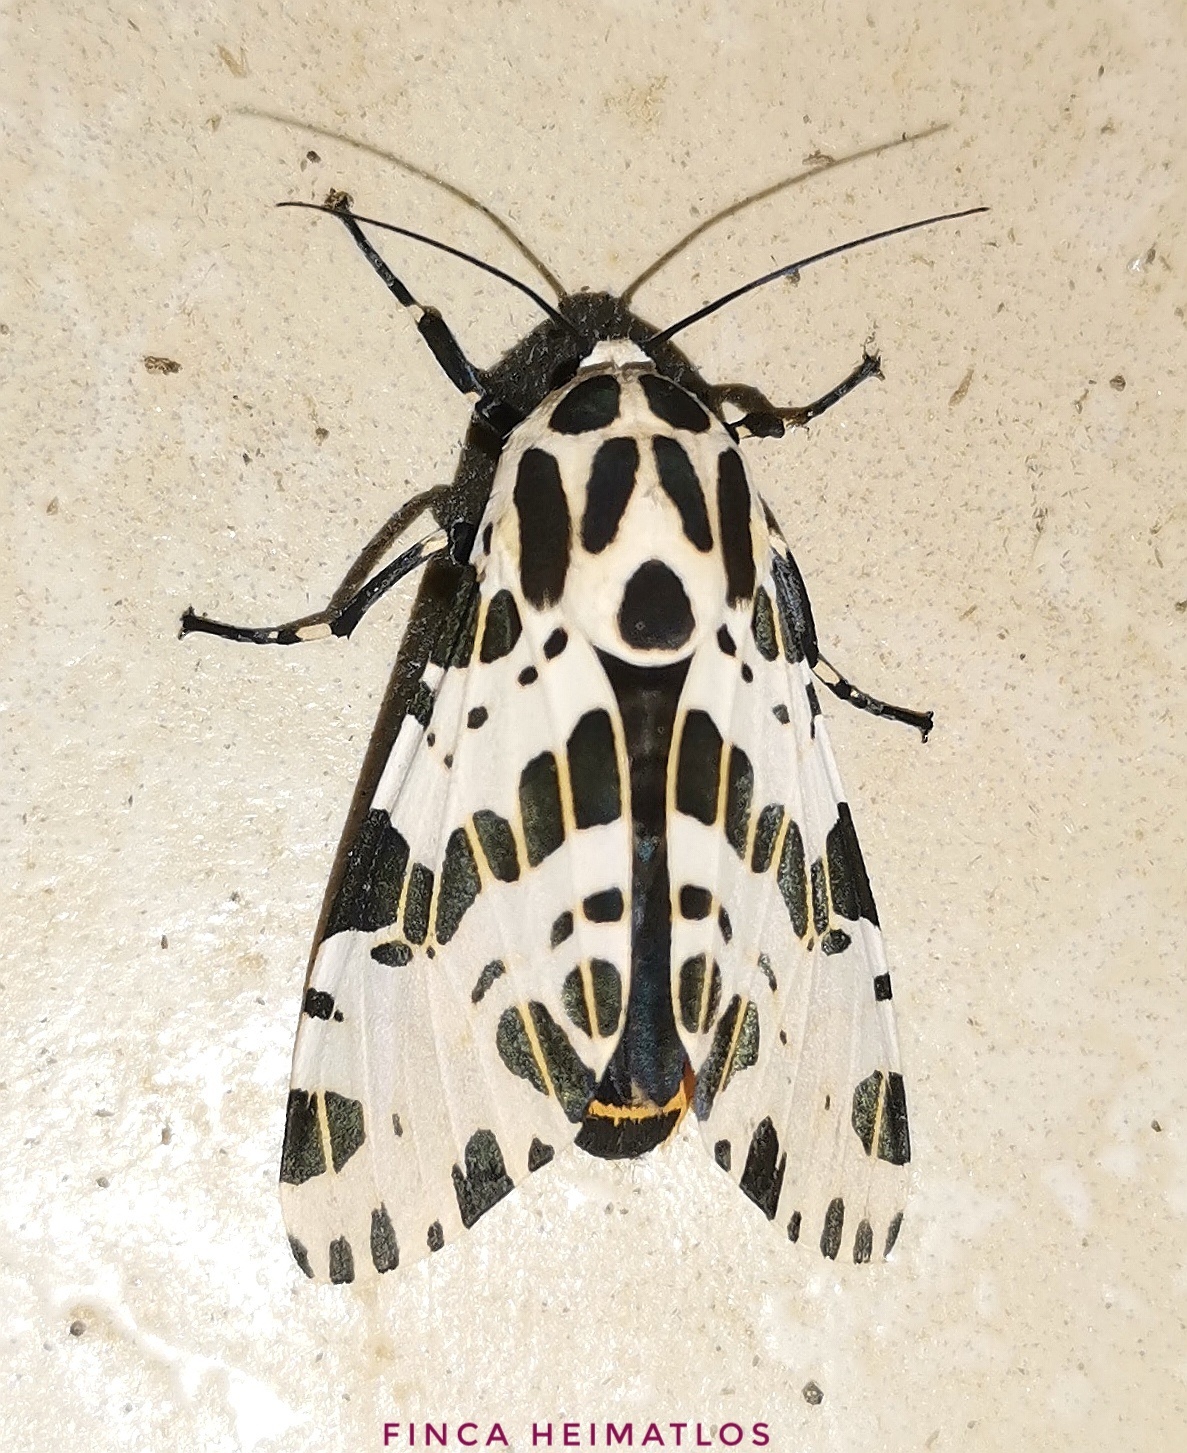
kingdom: Animalia
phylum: Arthropoda
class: Insecta
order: Lepidoptera
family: Erebidae
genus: Hypercompe
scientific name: Hypercompe magdalenae
